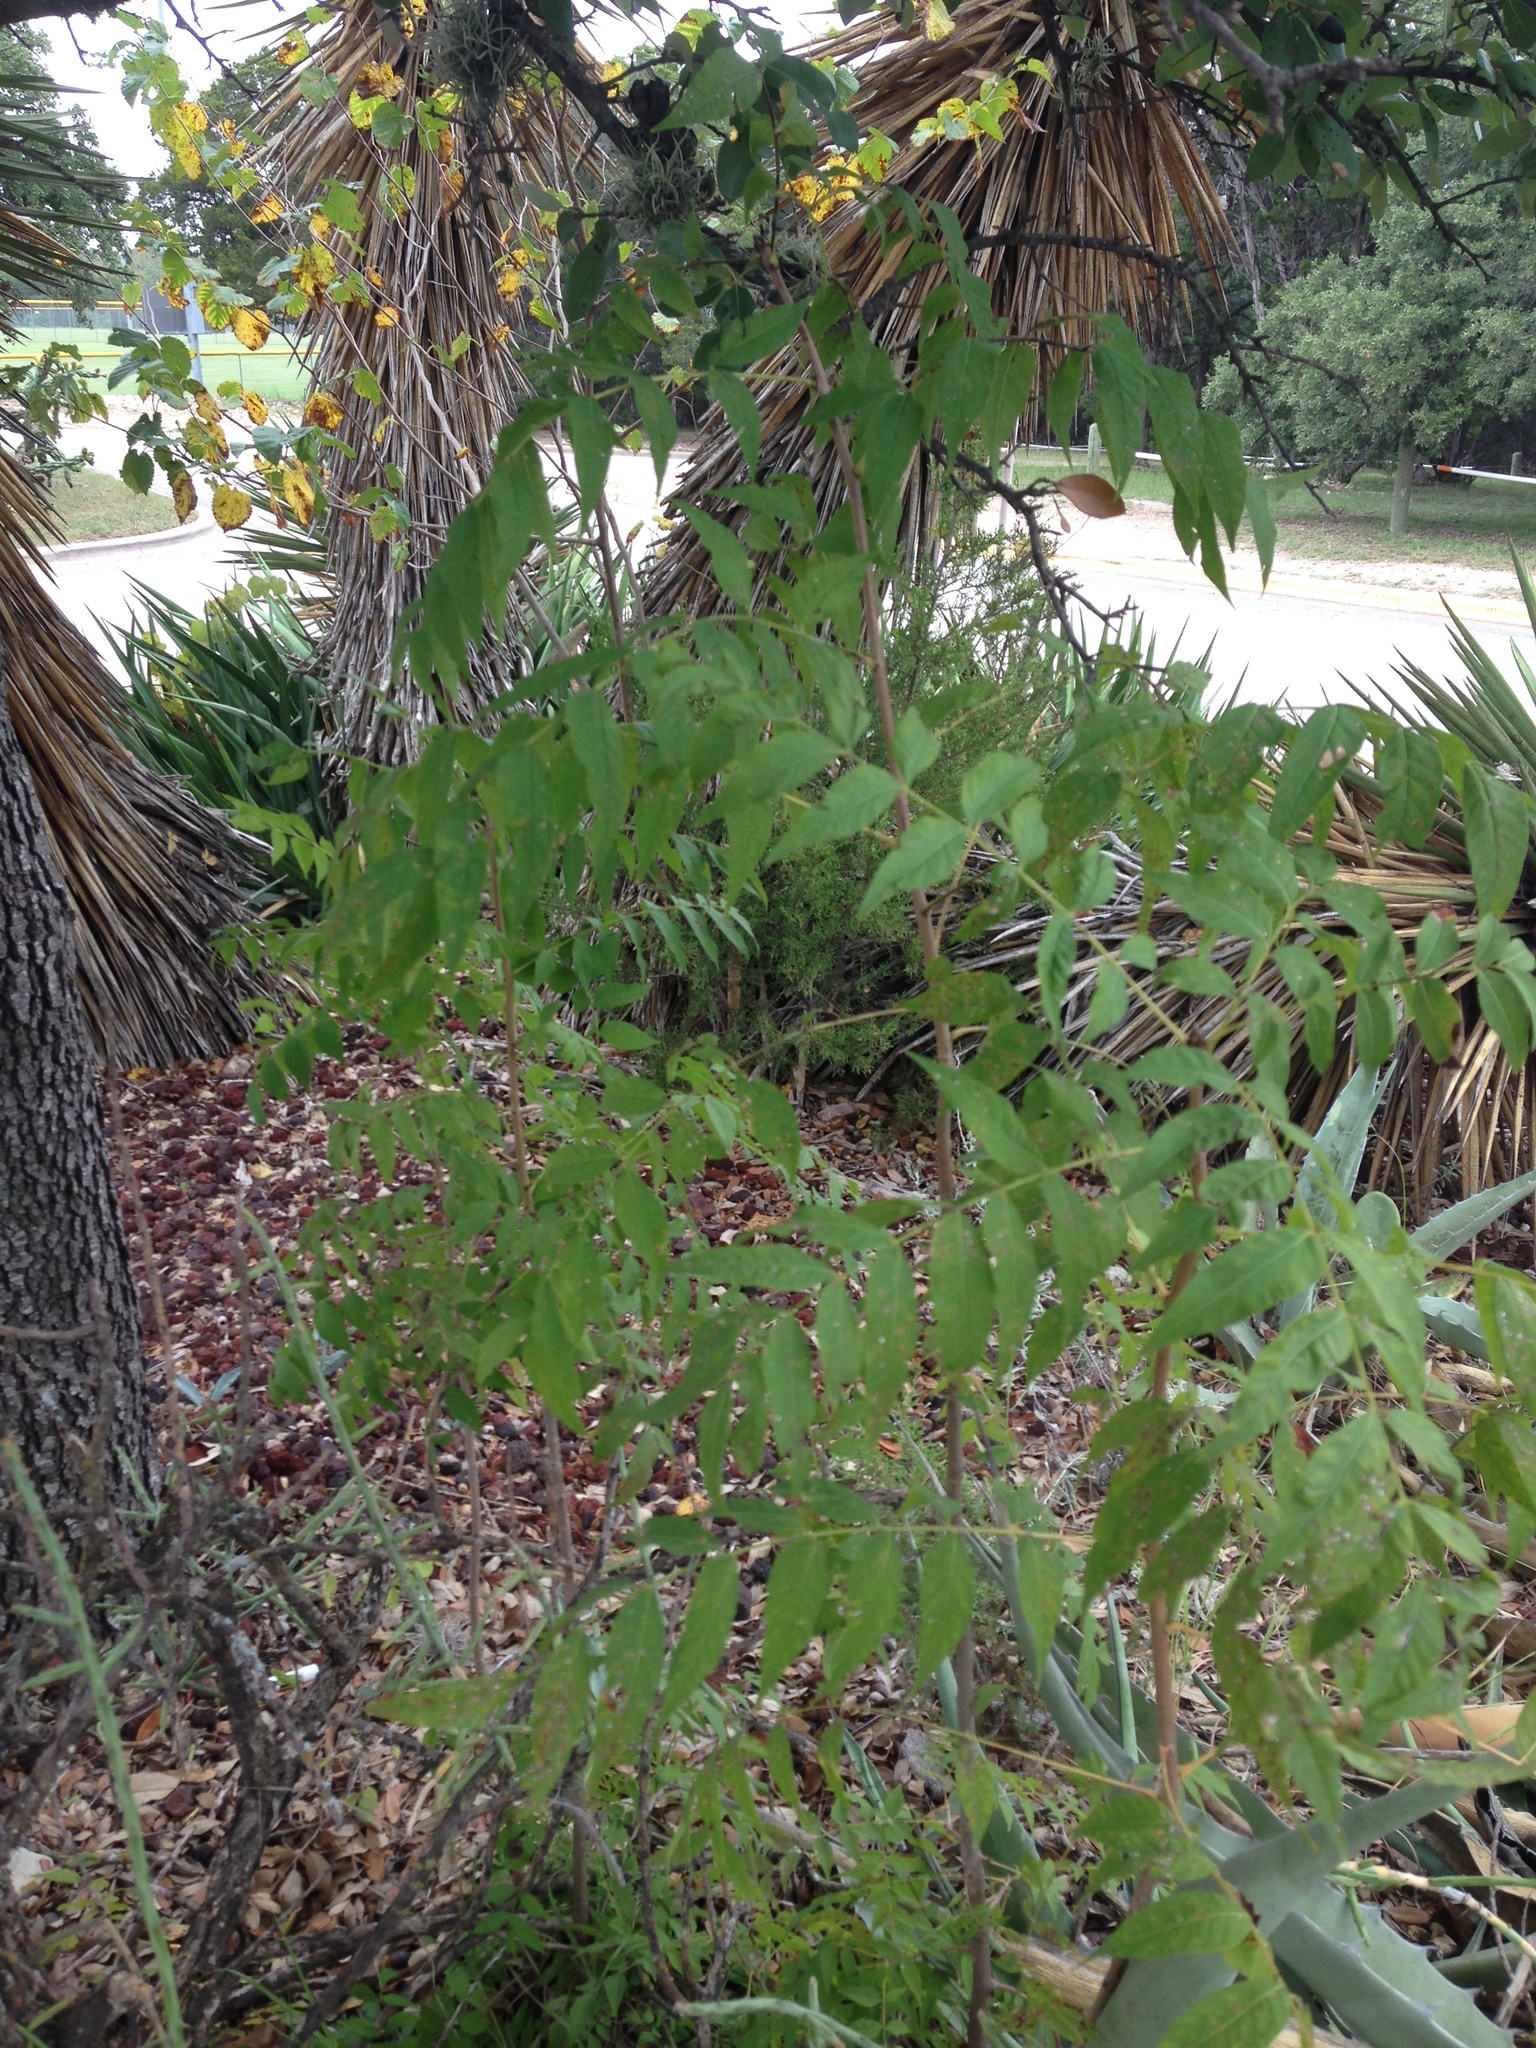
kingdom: Plantae
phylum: Tracheophyta
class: Magnoliopsida
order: Sapindales
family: Anacardiaceae
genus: Pistacia
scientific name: Pistacia chinensis
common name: Chinese pistache
